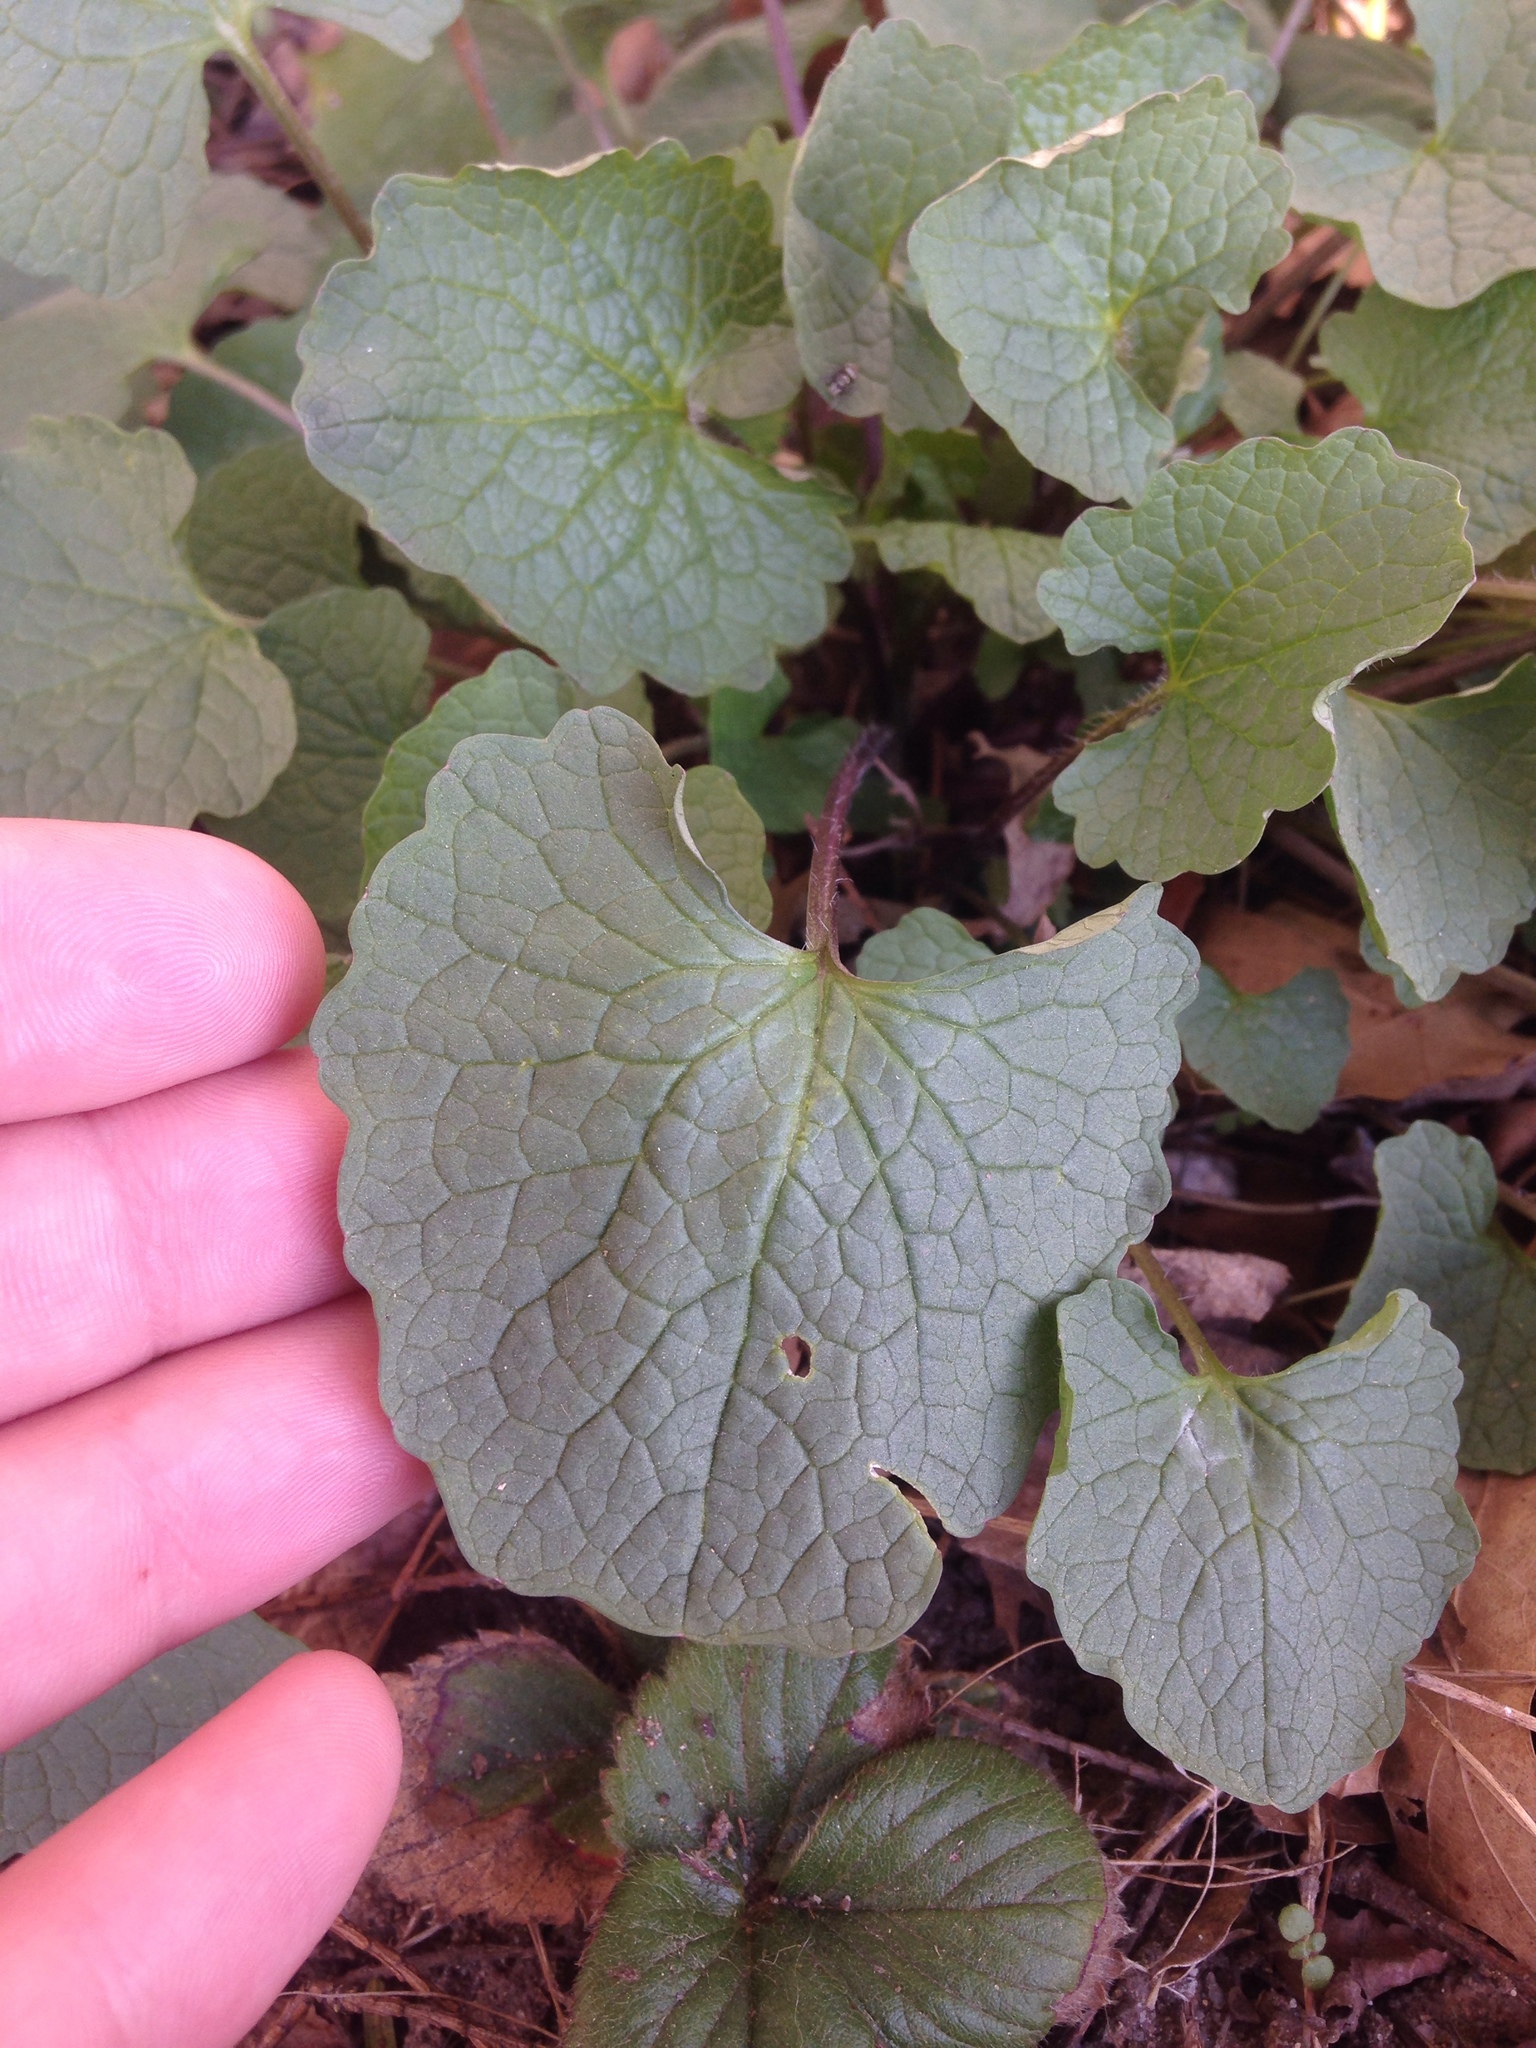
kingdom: Plantae
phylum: Tracheophyta
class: Magnoliopsida
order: Brassicales
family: Brassicaceae
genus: Alliaria
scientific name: Alliaria petiolata
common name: Garlic mustard
